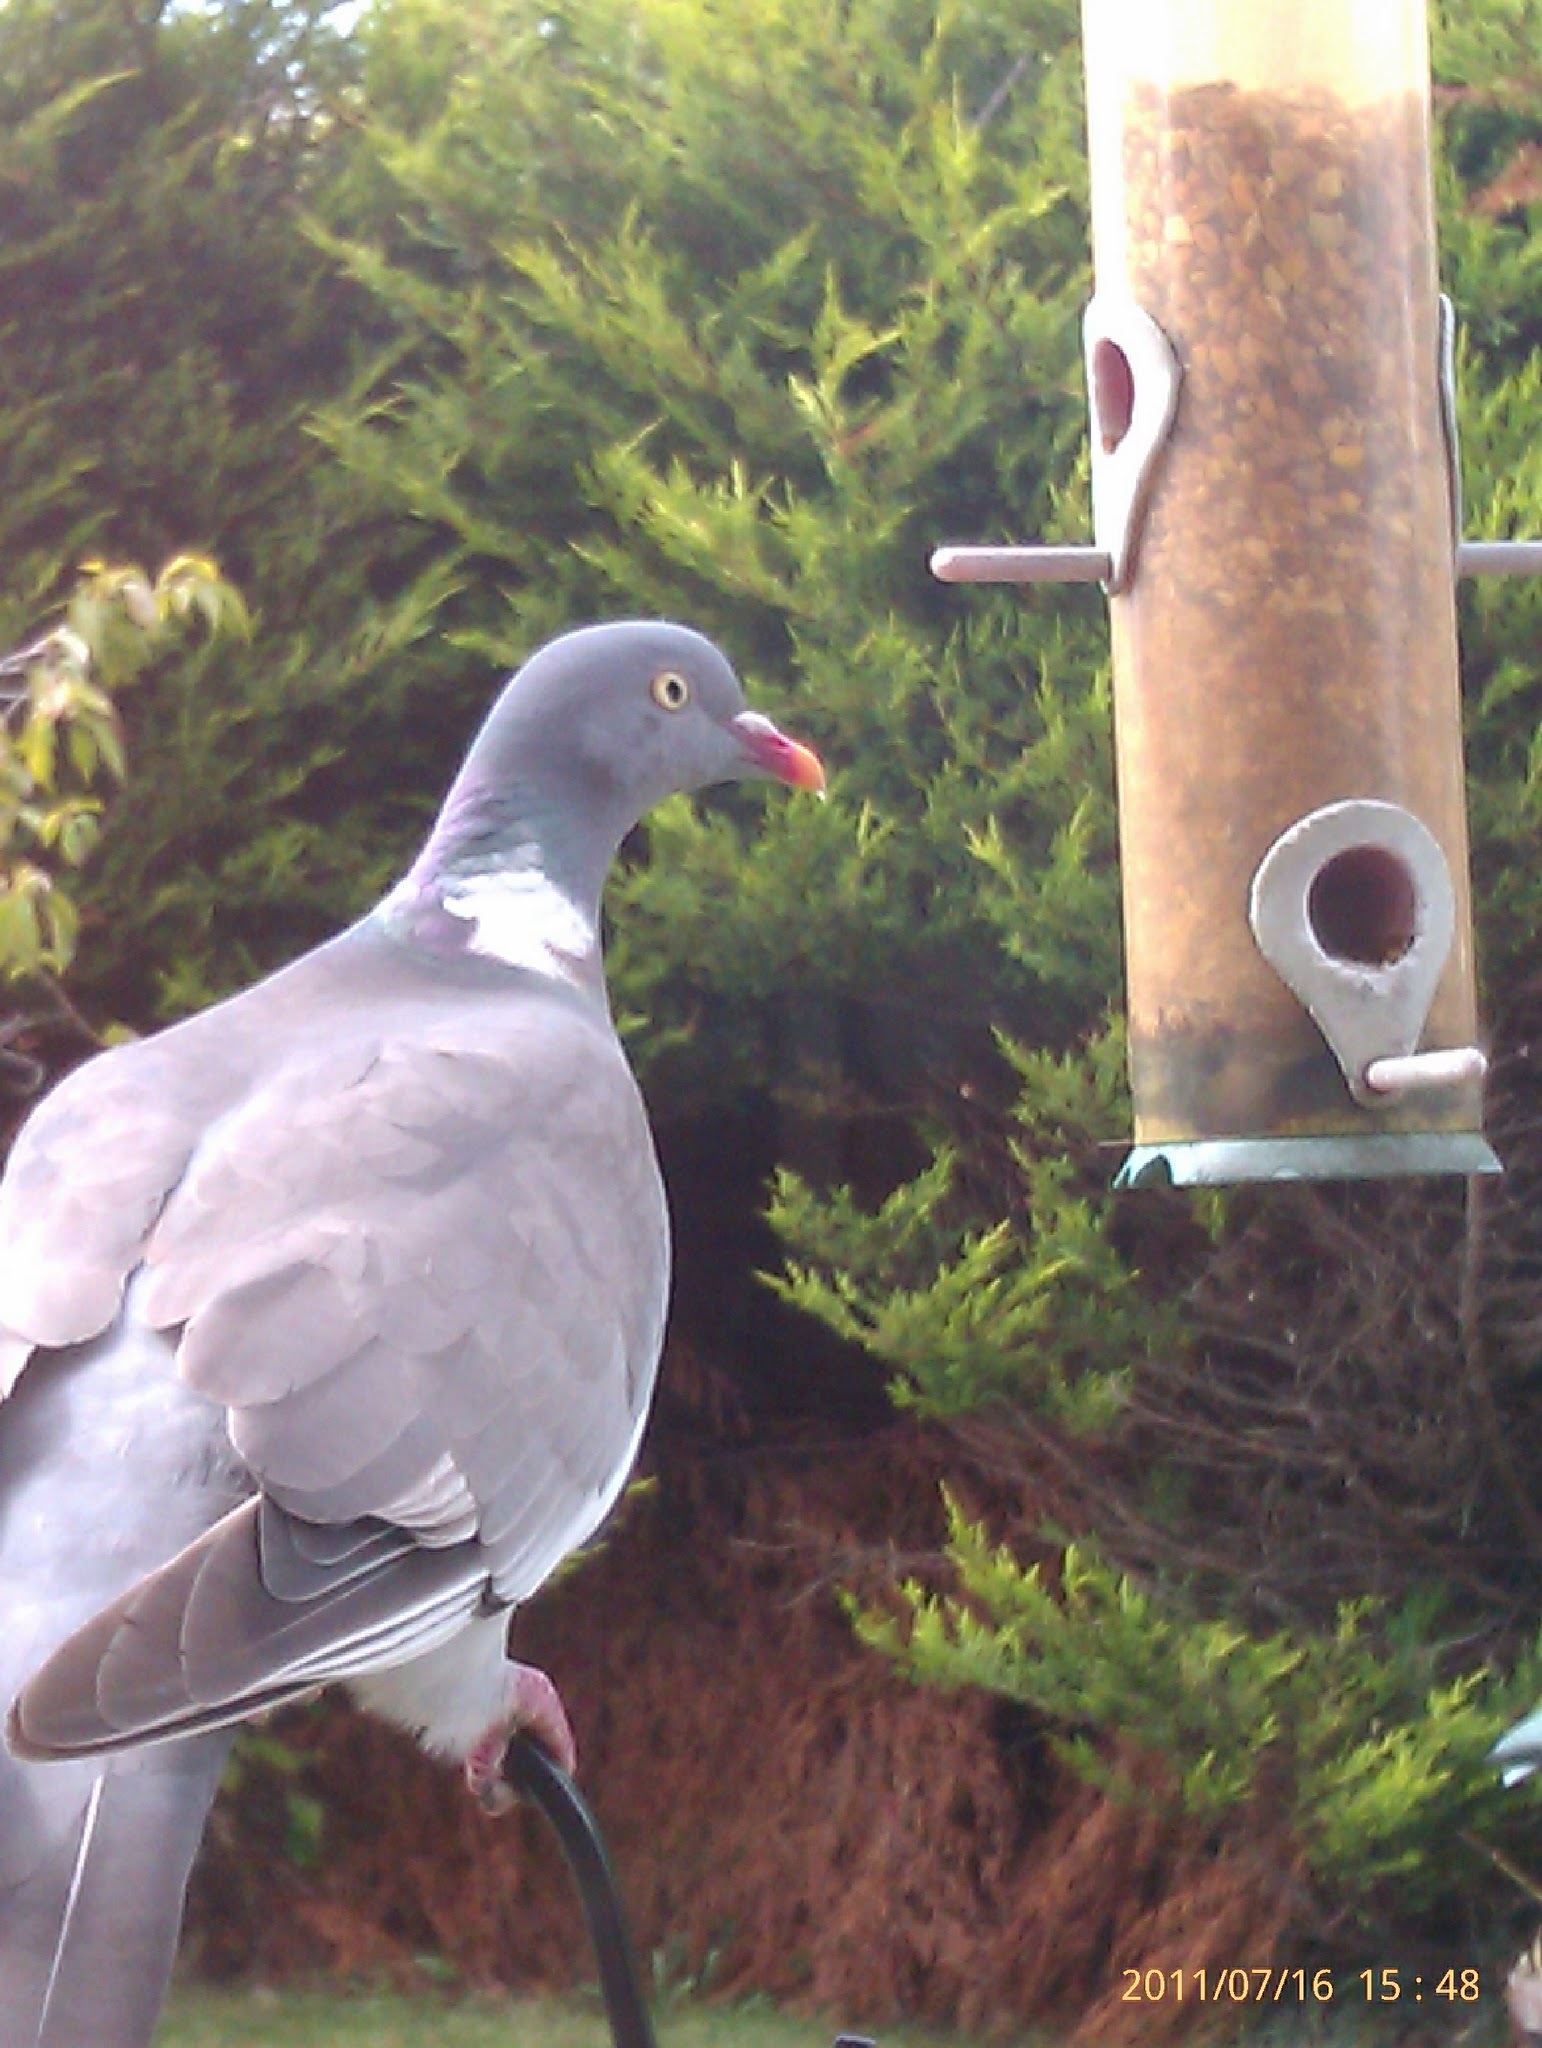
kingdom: Animalia
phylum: Chordata
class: Aves
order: Columbiformes
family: Columbidae
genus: Columba
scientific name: Columba palumbus
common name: Common wood pigeon
